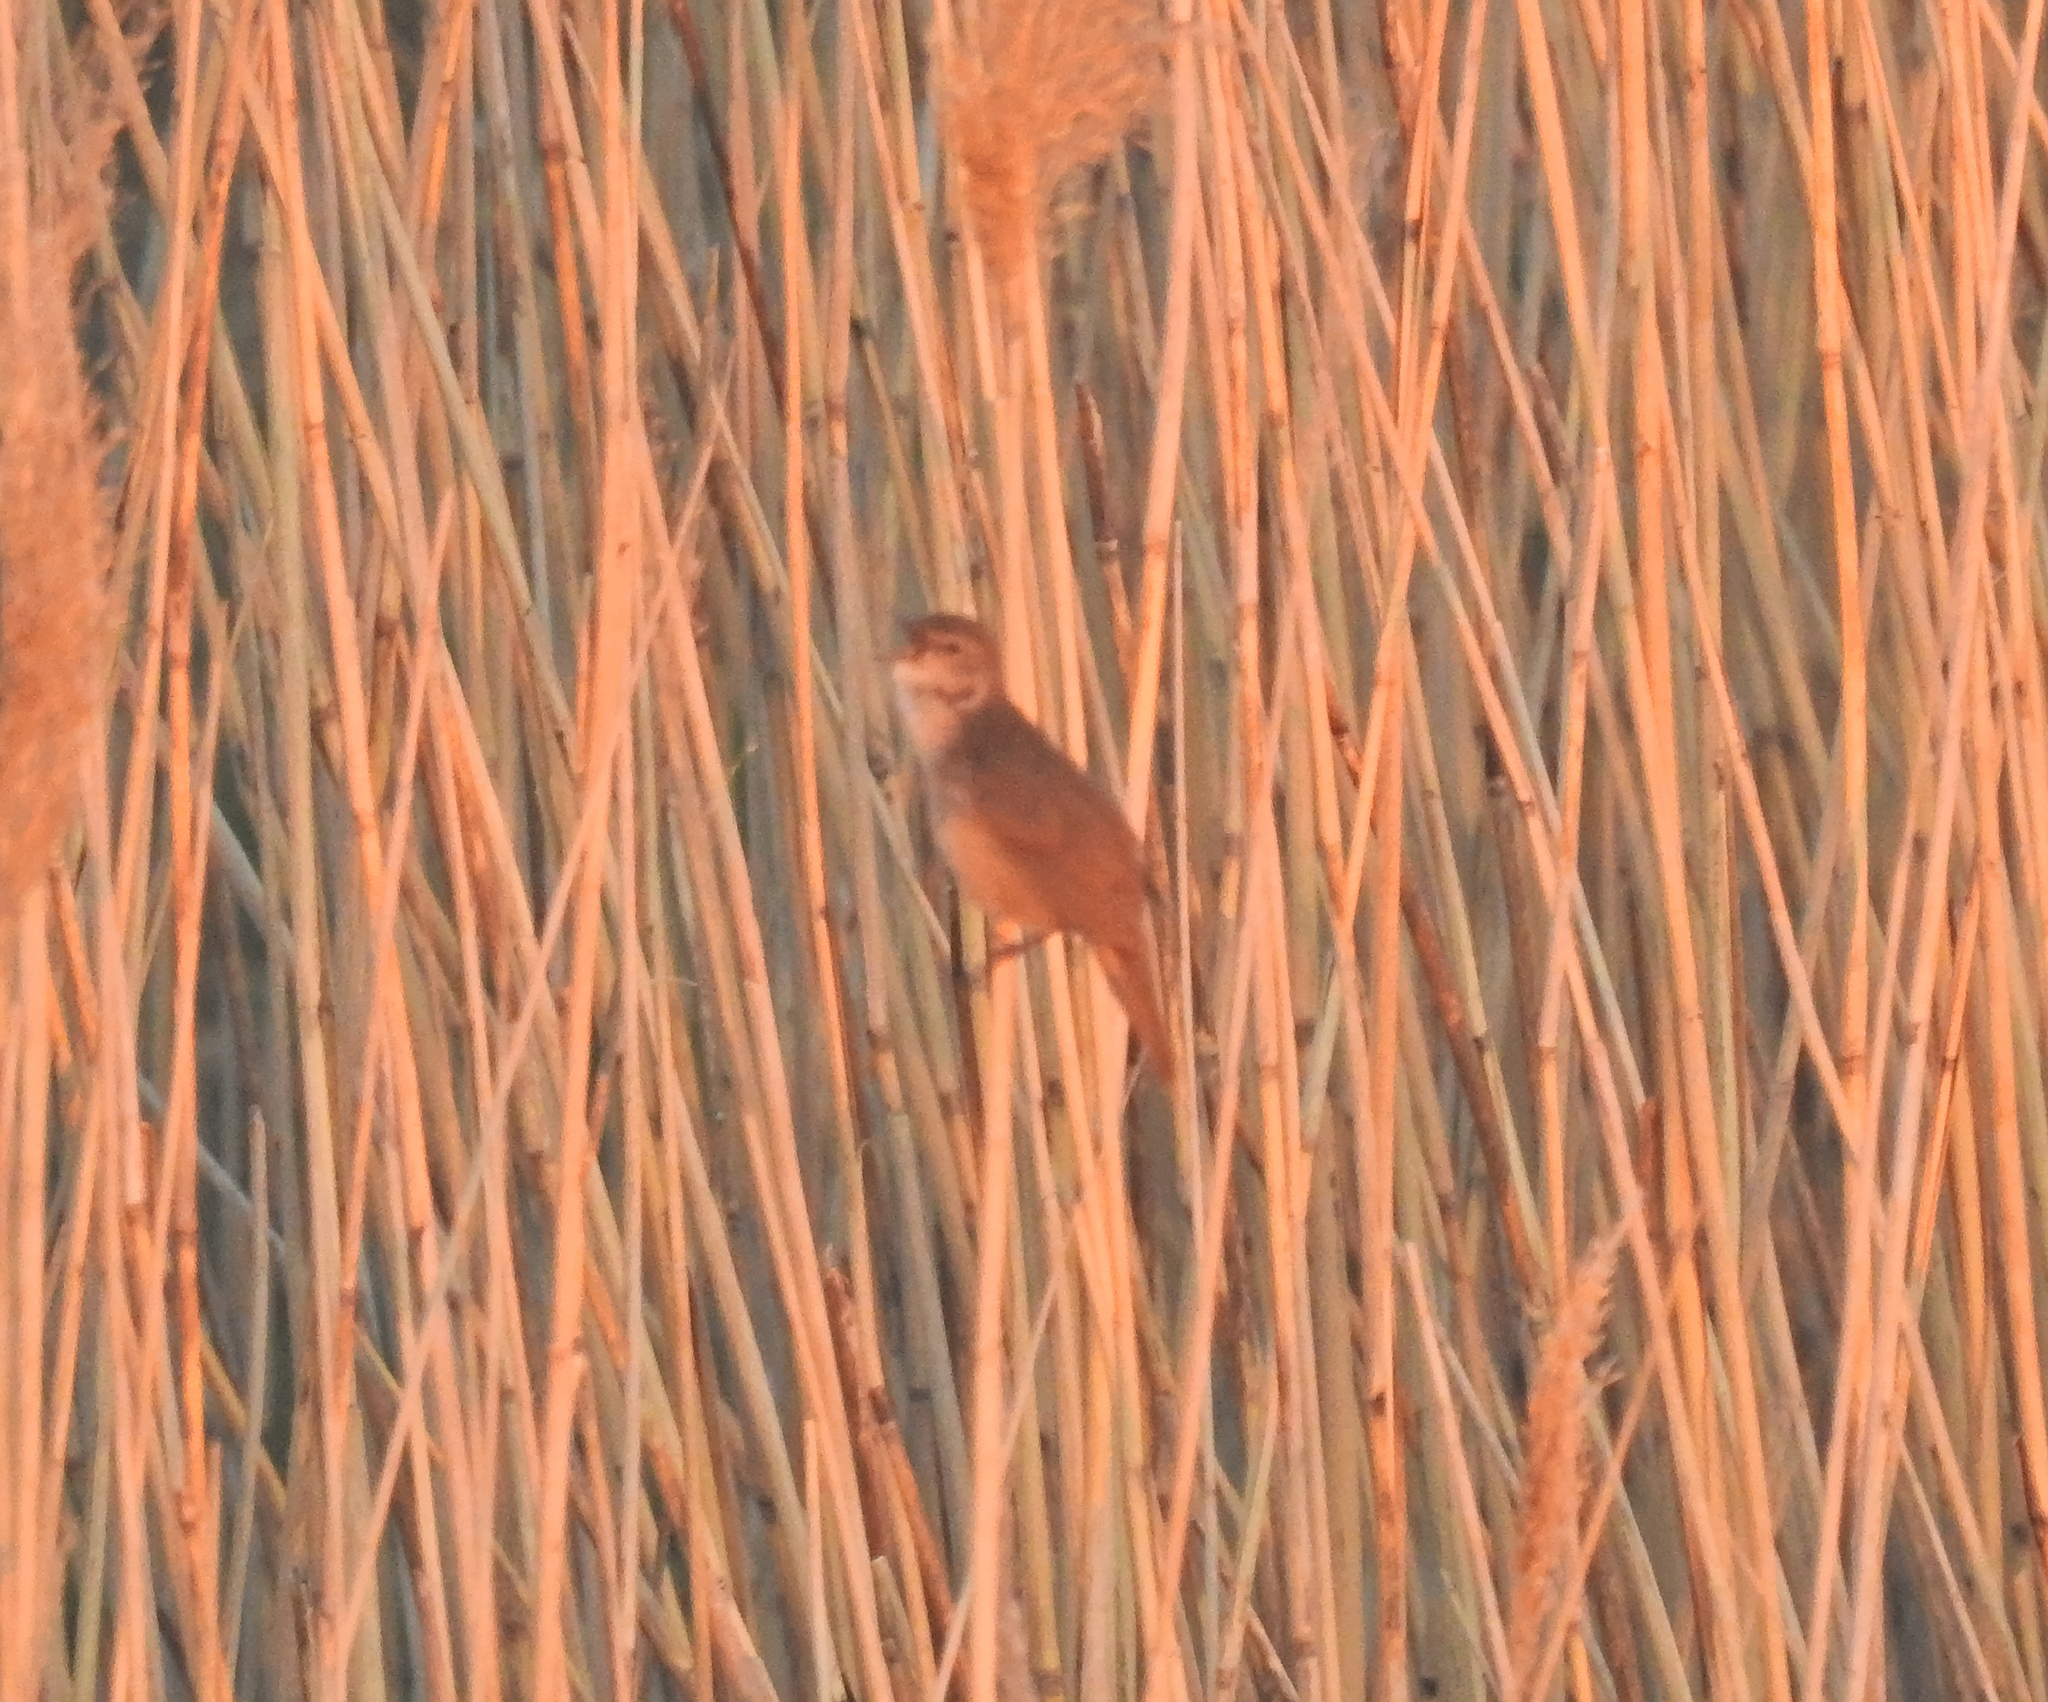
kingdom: Animalia
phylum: Chordata
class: Aves
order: Passeriformes
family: Locustellidae
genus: Locustella
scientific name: Locustella luscinioides
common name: Savi's warbler
